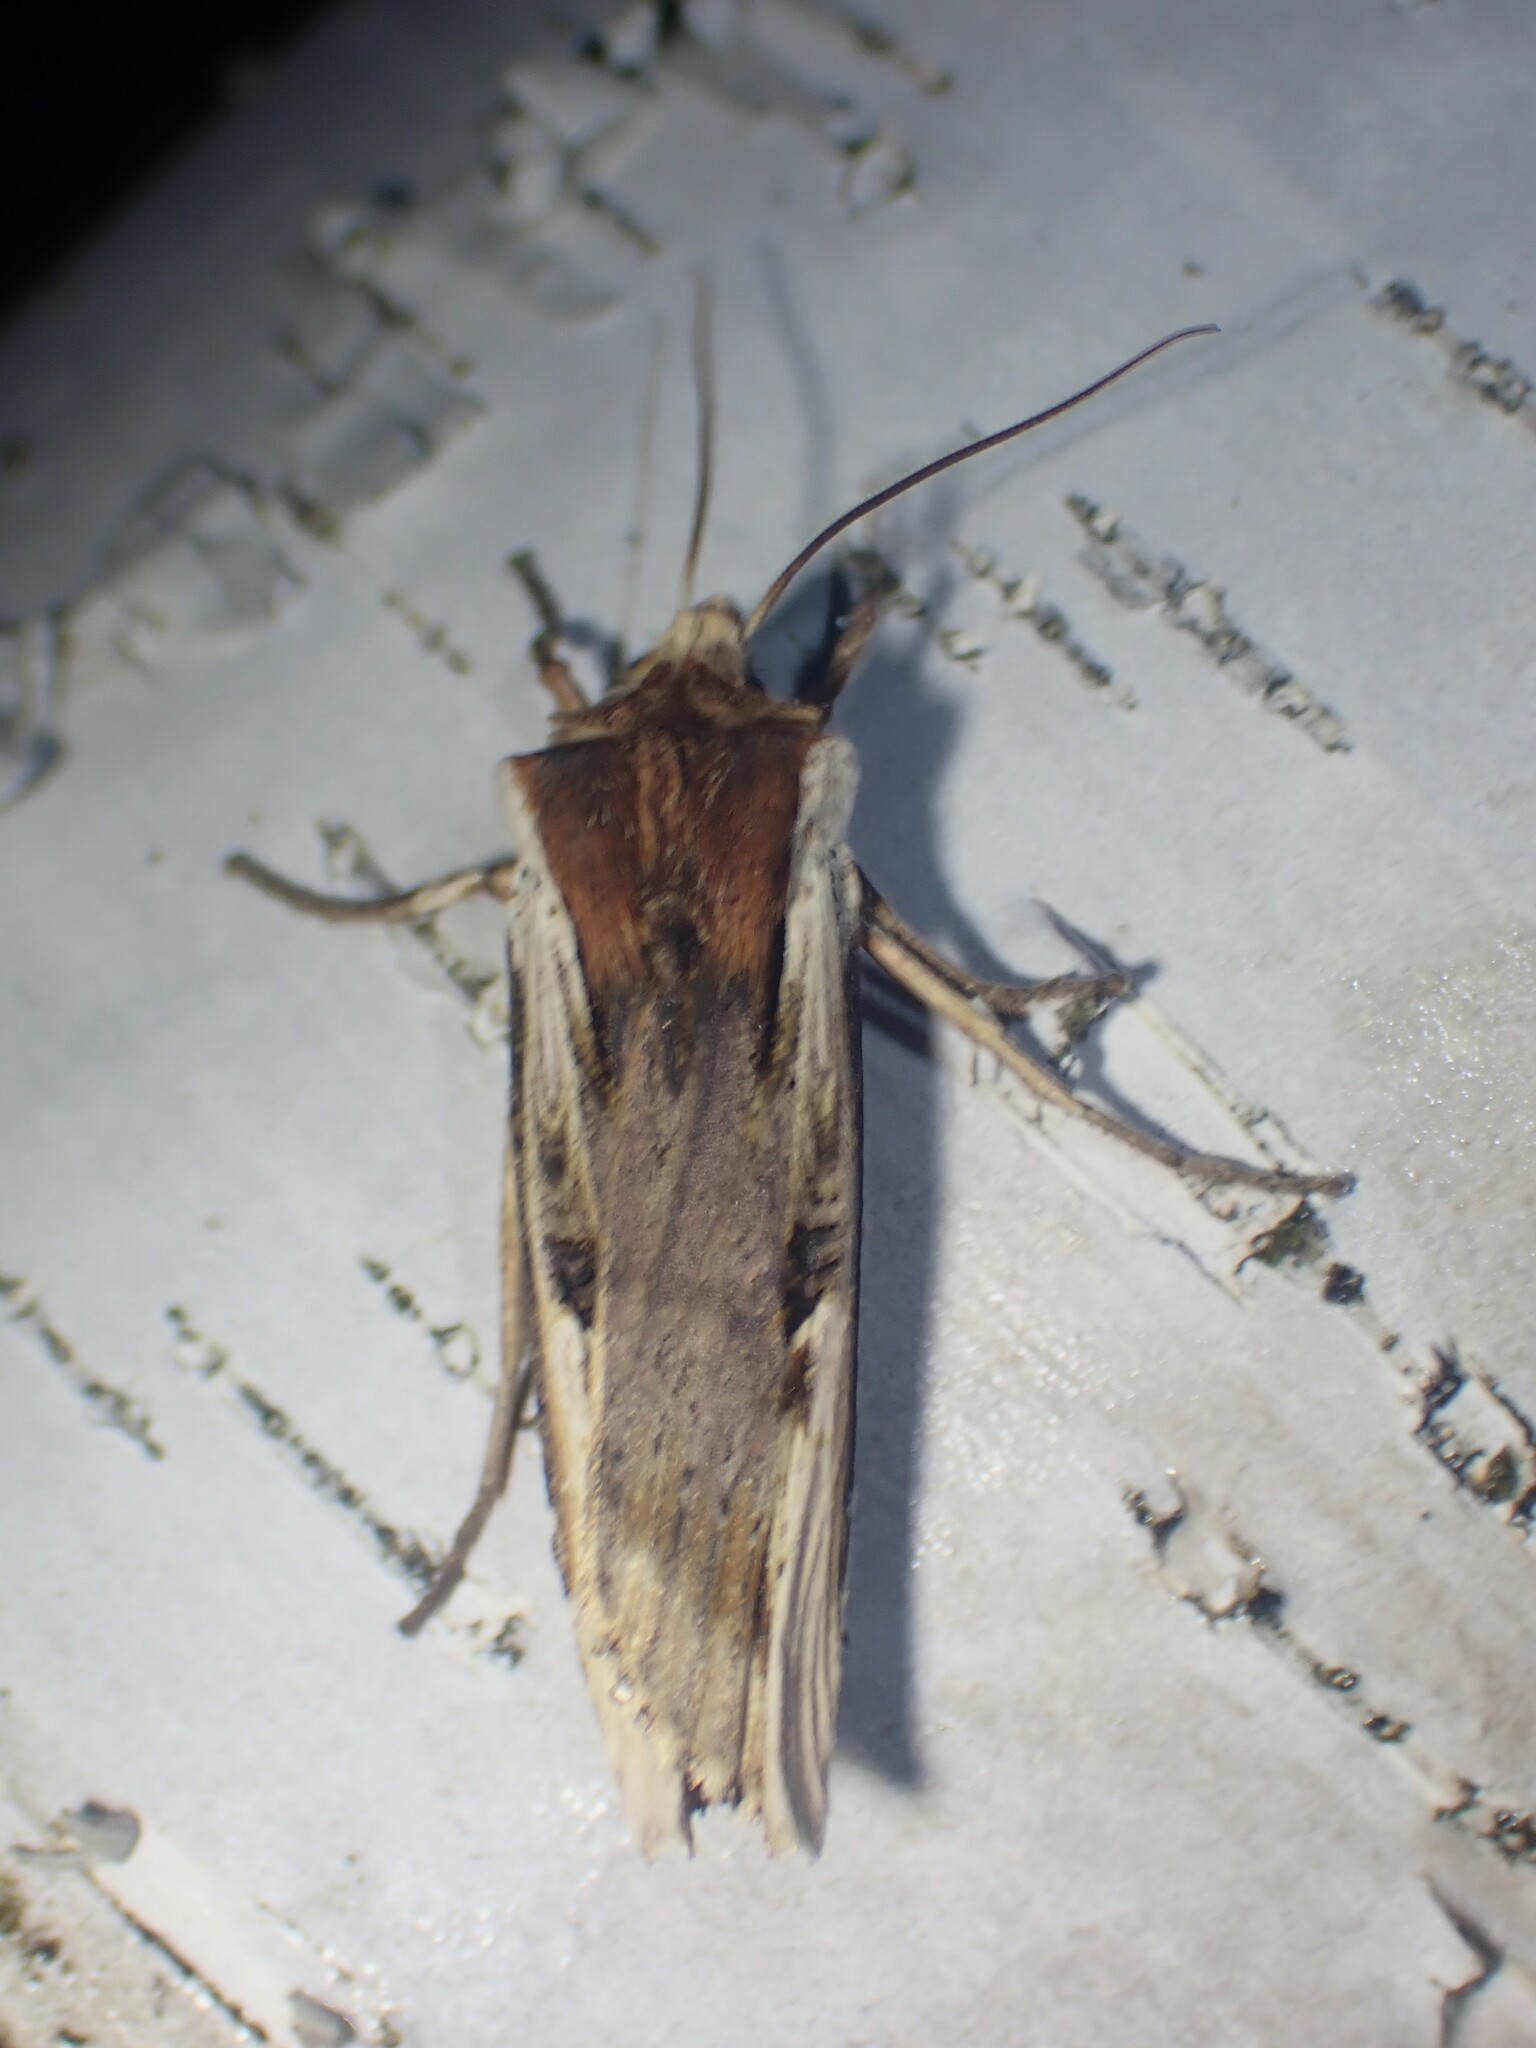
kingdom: Animalia
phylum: Arthropoda
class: Insecta
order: Lepidoptera
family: Noctuidae
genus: Xylena
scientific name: Xylena curvimacula
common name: Dot-and-dash swordgrass moth
